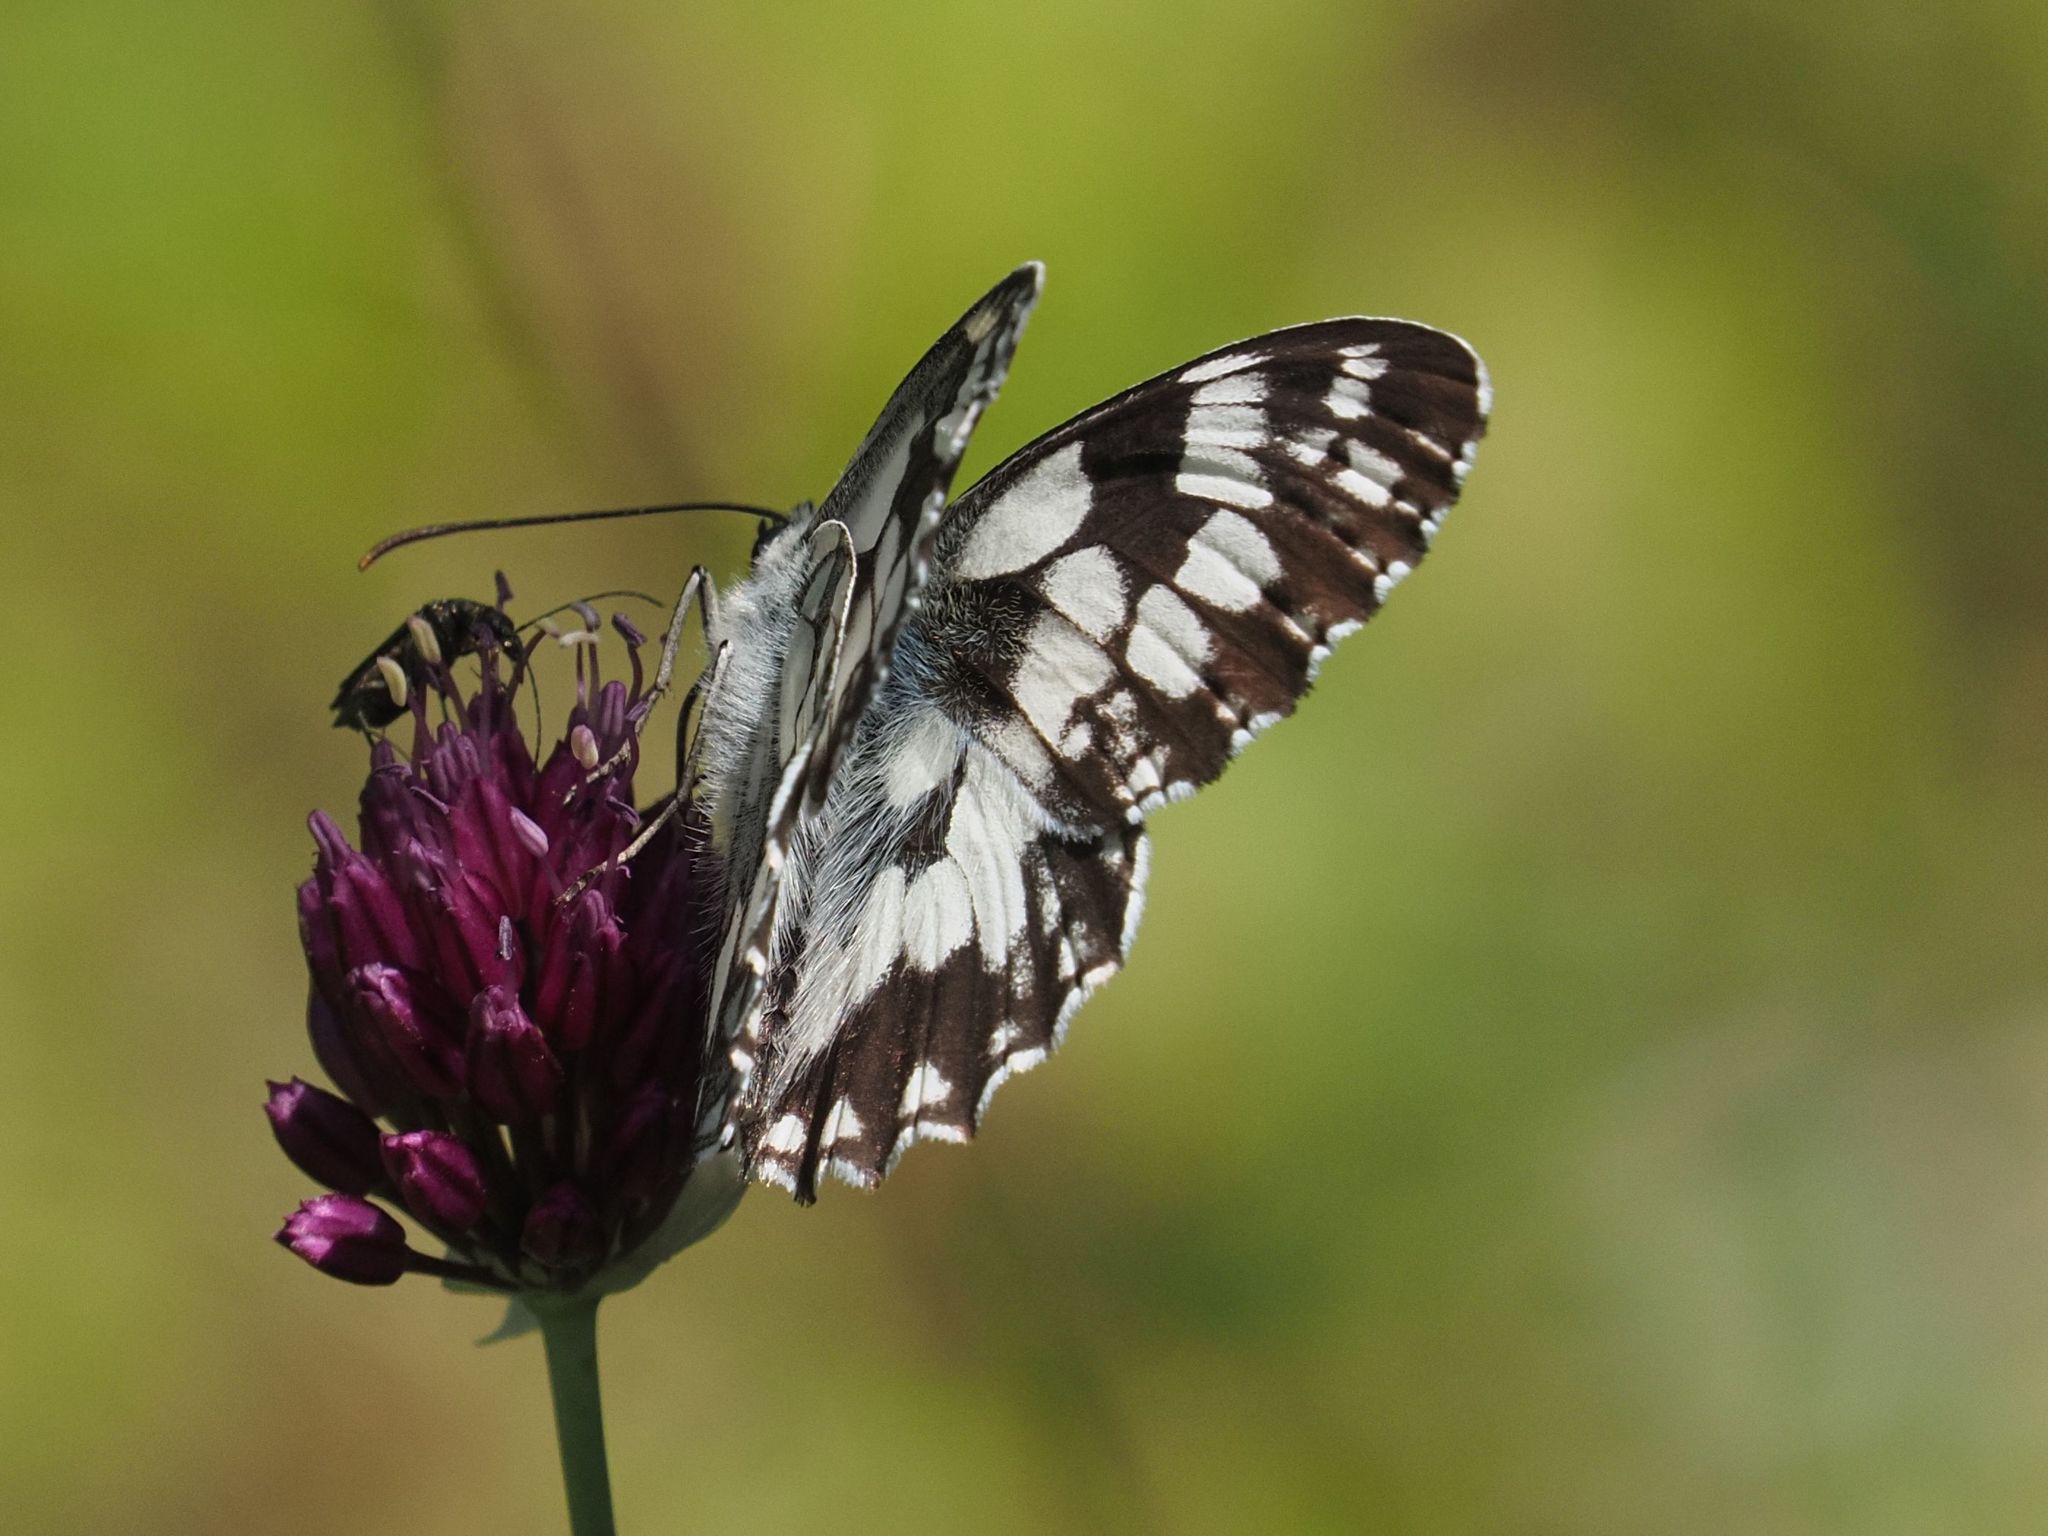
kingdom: Animalia
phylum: Arthropoda
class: Insecta
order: Lepidoptera
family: Nymphalidae
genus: Melanargia
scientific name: Melanargia galathea
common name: Marbled white
